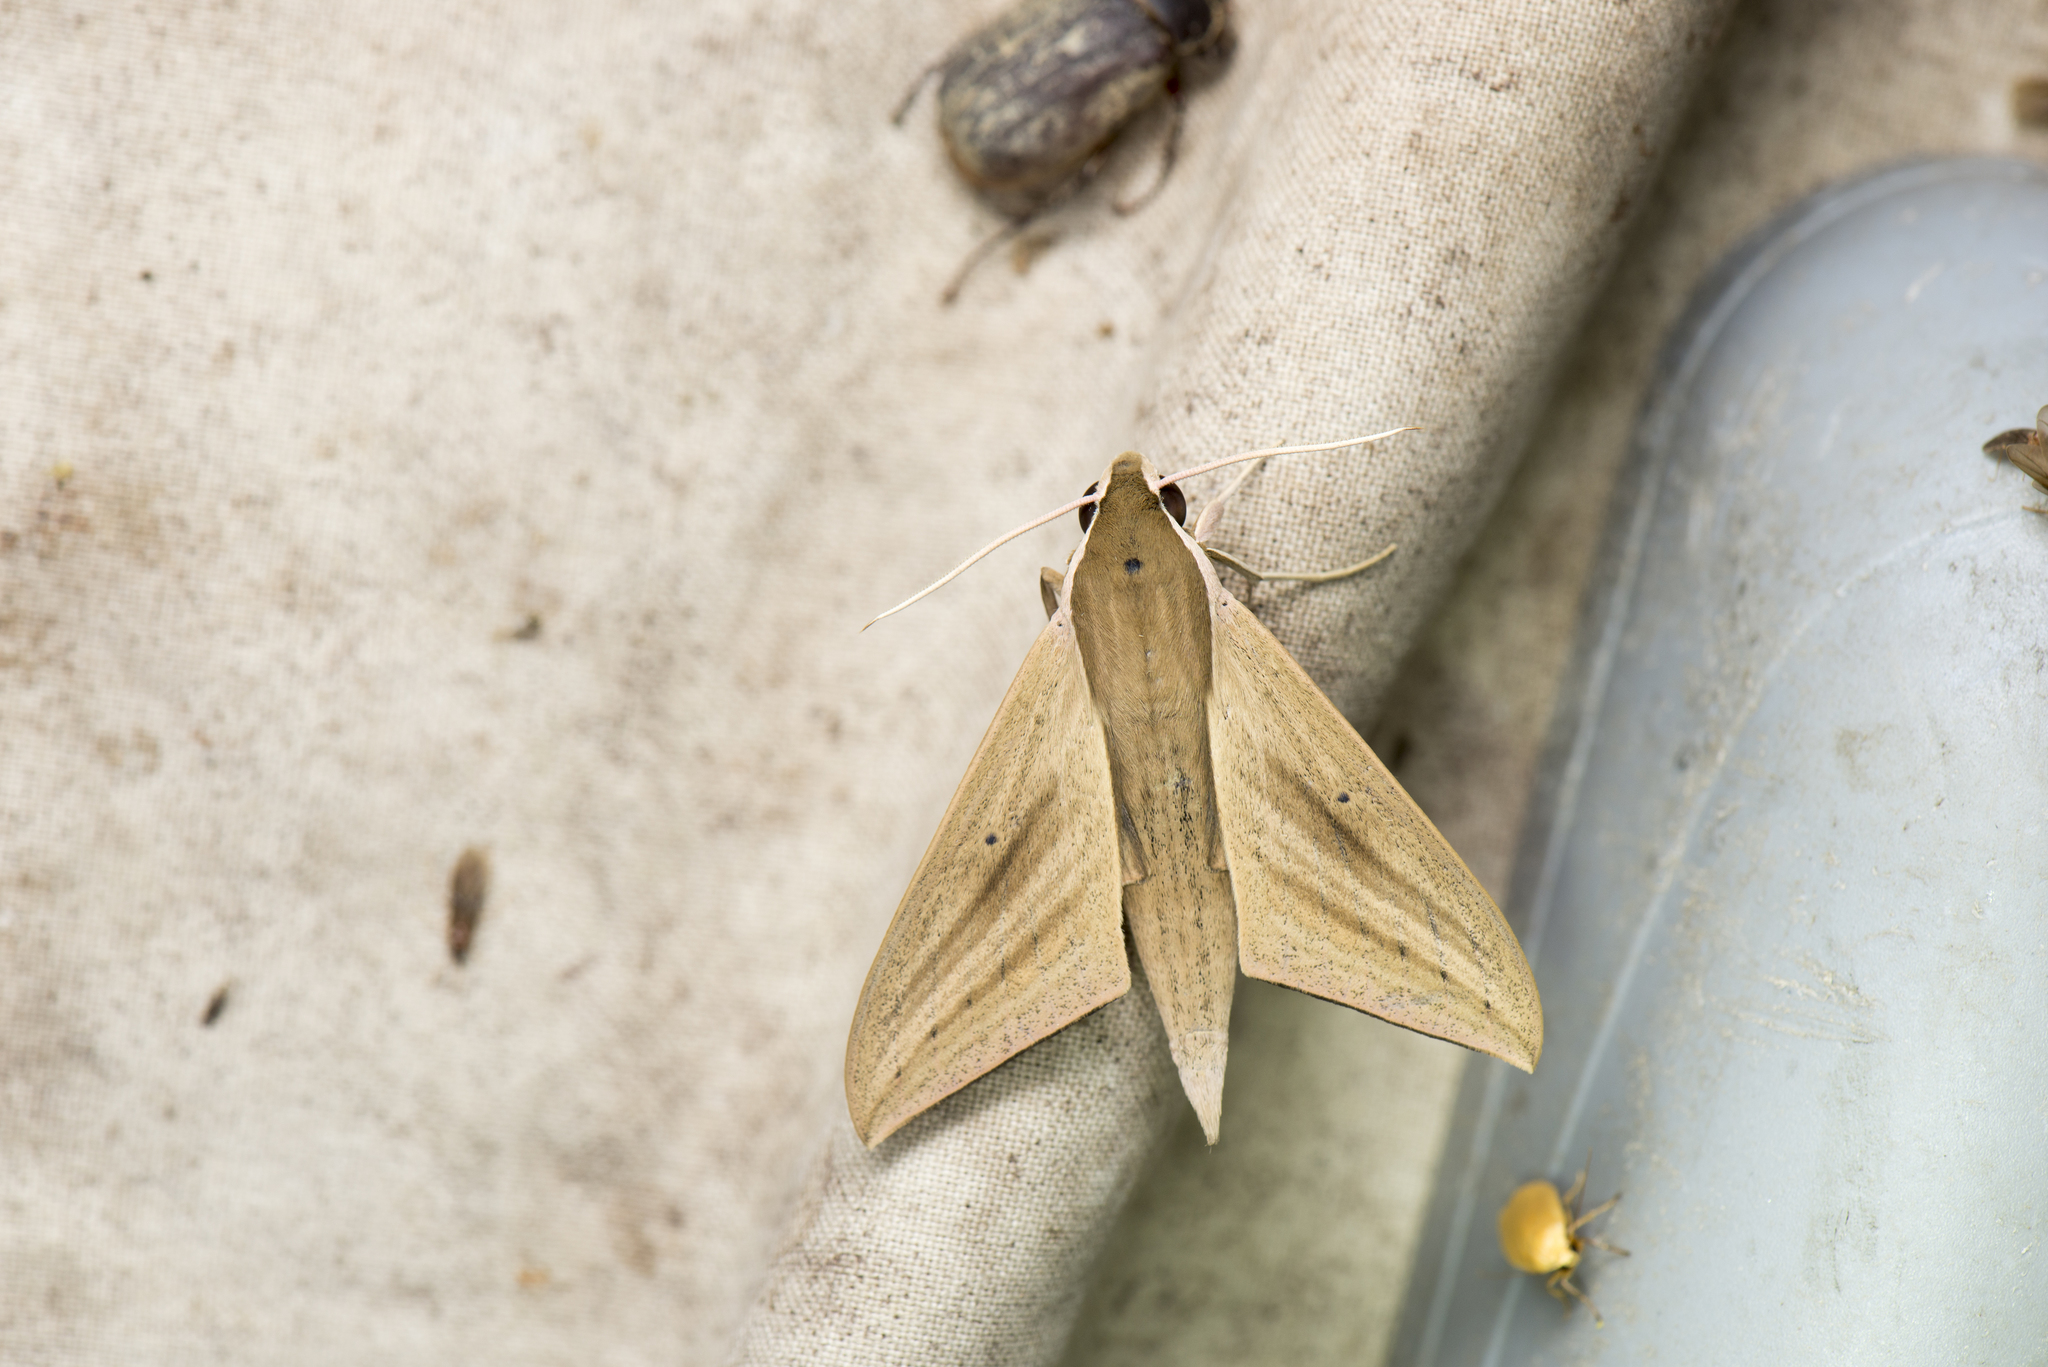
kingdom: Animalia
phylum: Arthropoda
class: Insecta
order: Lepidoptera
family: Sphingidae
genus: Theretra
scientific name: Theretra rhesus
